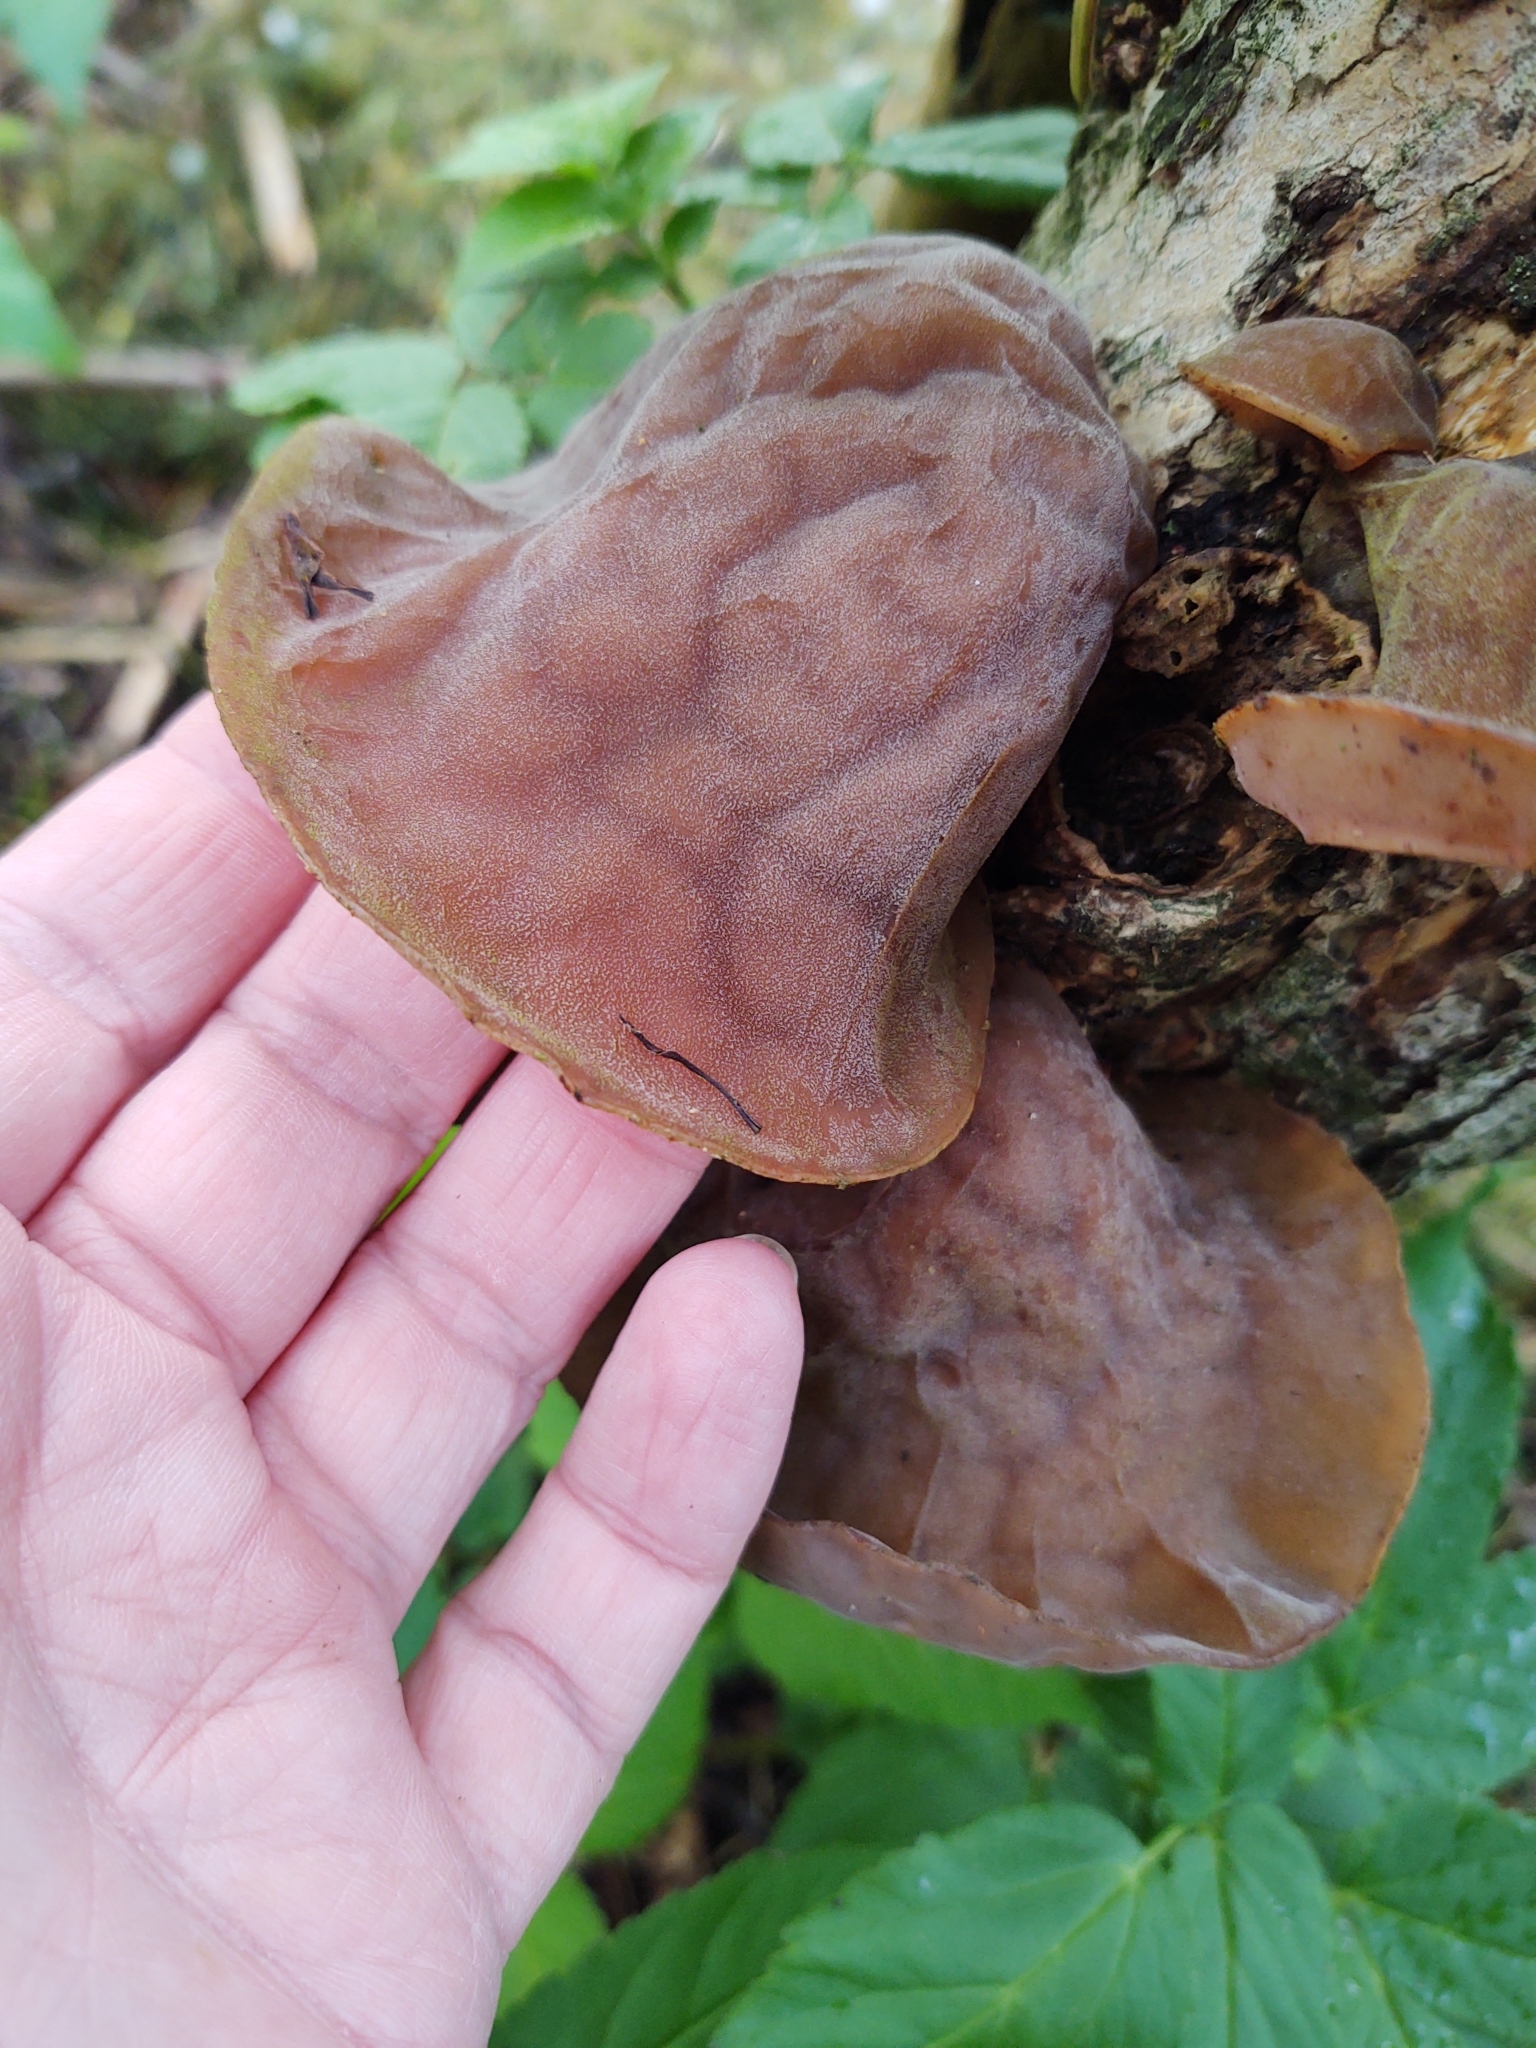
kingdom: Fungi
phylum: Basidiomycota
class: Agaricomycetes
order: Auriculariales
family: Auriculariaceae
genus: Auricularia
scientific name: Auricularia auricula-judae
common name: Jelly ear
